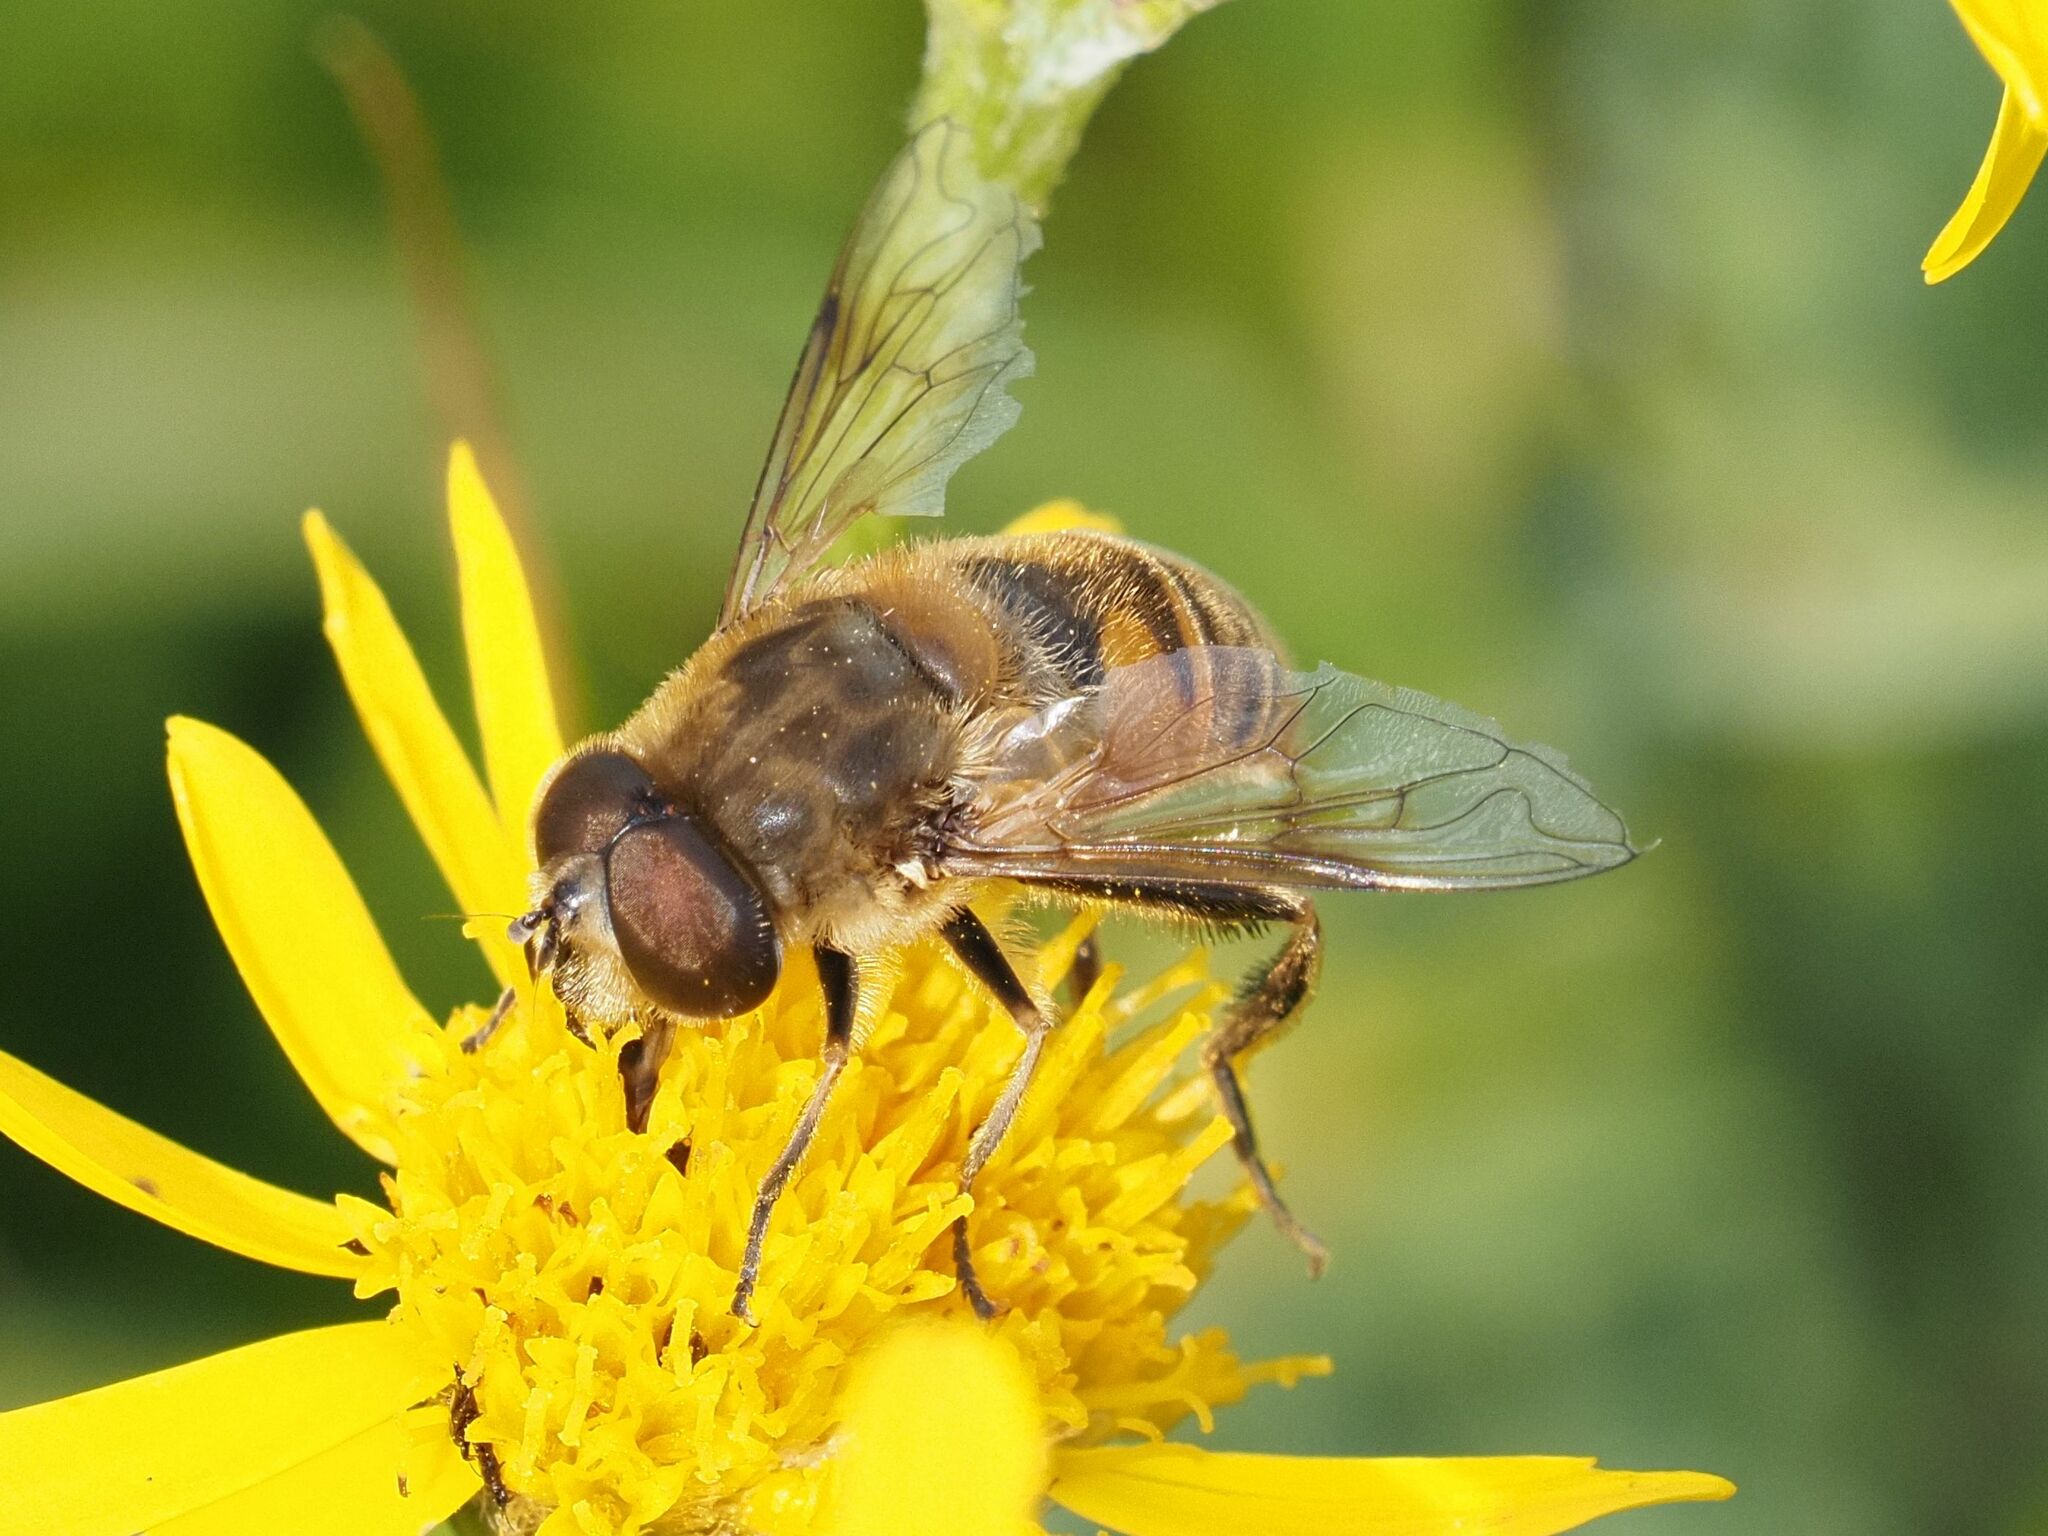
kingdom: Animalia
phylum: Arthropoda
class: Insecta
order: Diptera
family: Syrphidae
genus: Eristalis
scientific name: Eristalis tenax
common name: Drone fly
